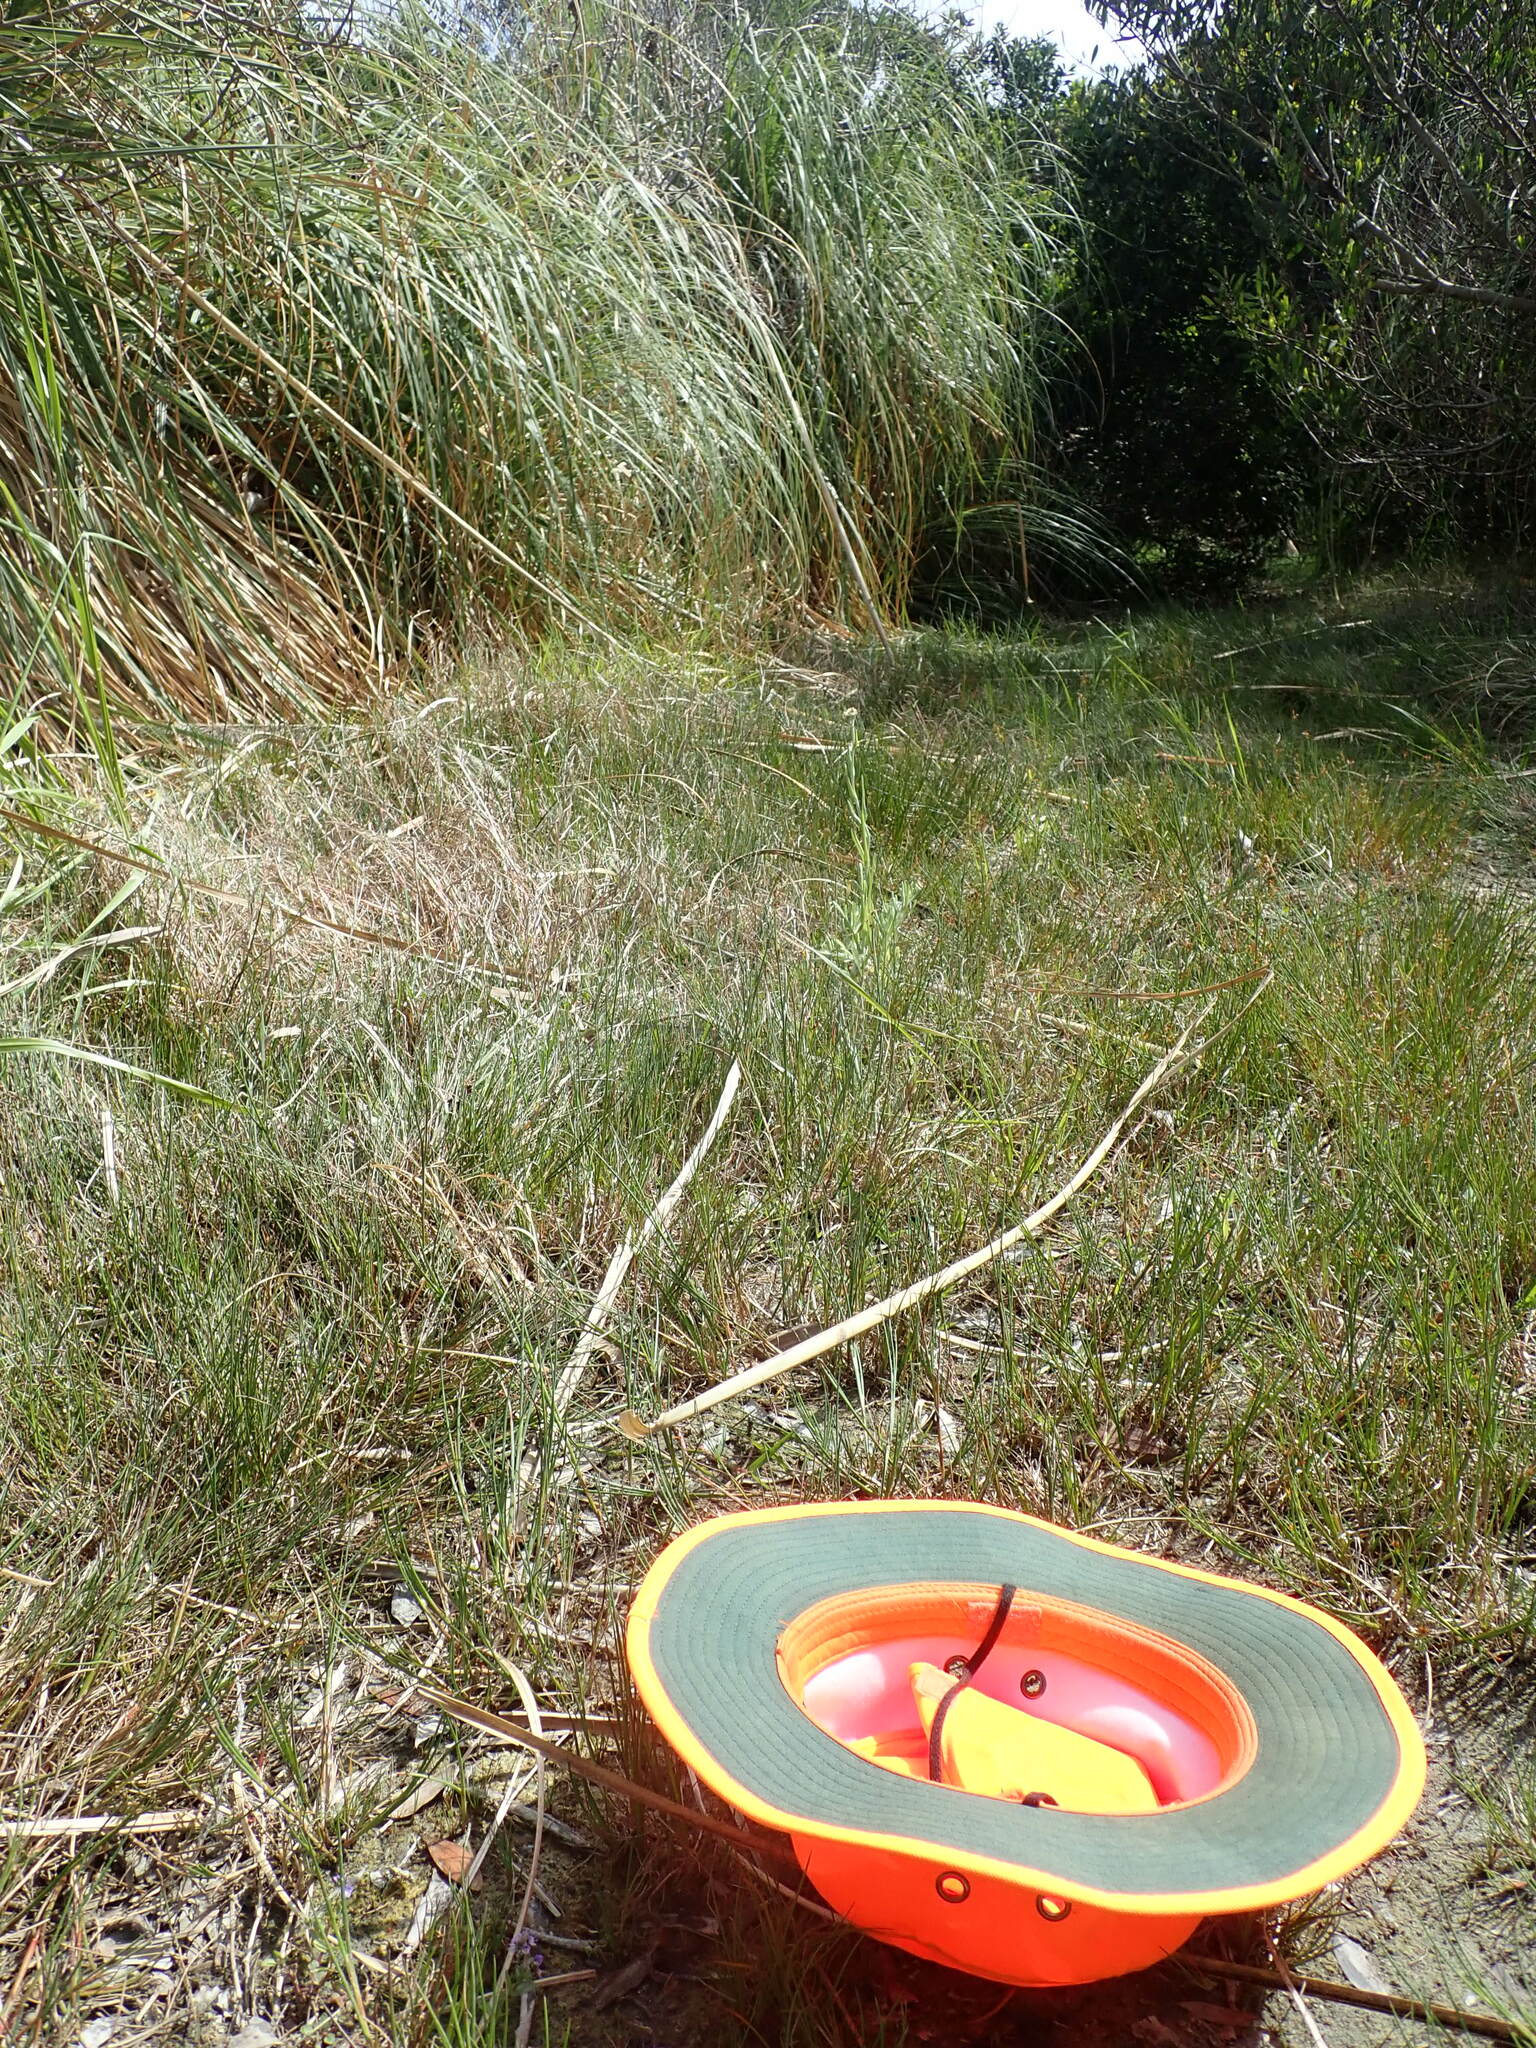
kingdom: Plantae
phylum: Tracheophyta
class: Magnoliopsida
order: Lamiales
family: Plantaginaceae
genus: Veronica
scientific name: Veronica anagallis-aquatica
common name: Water speedwell
